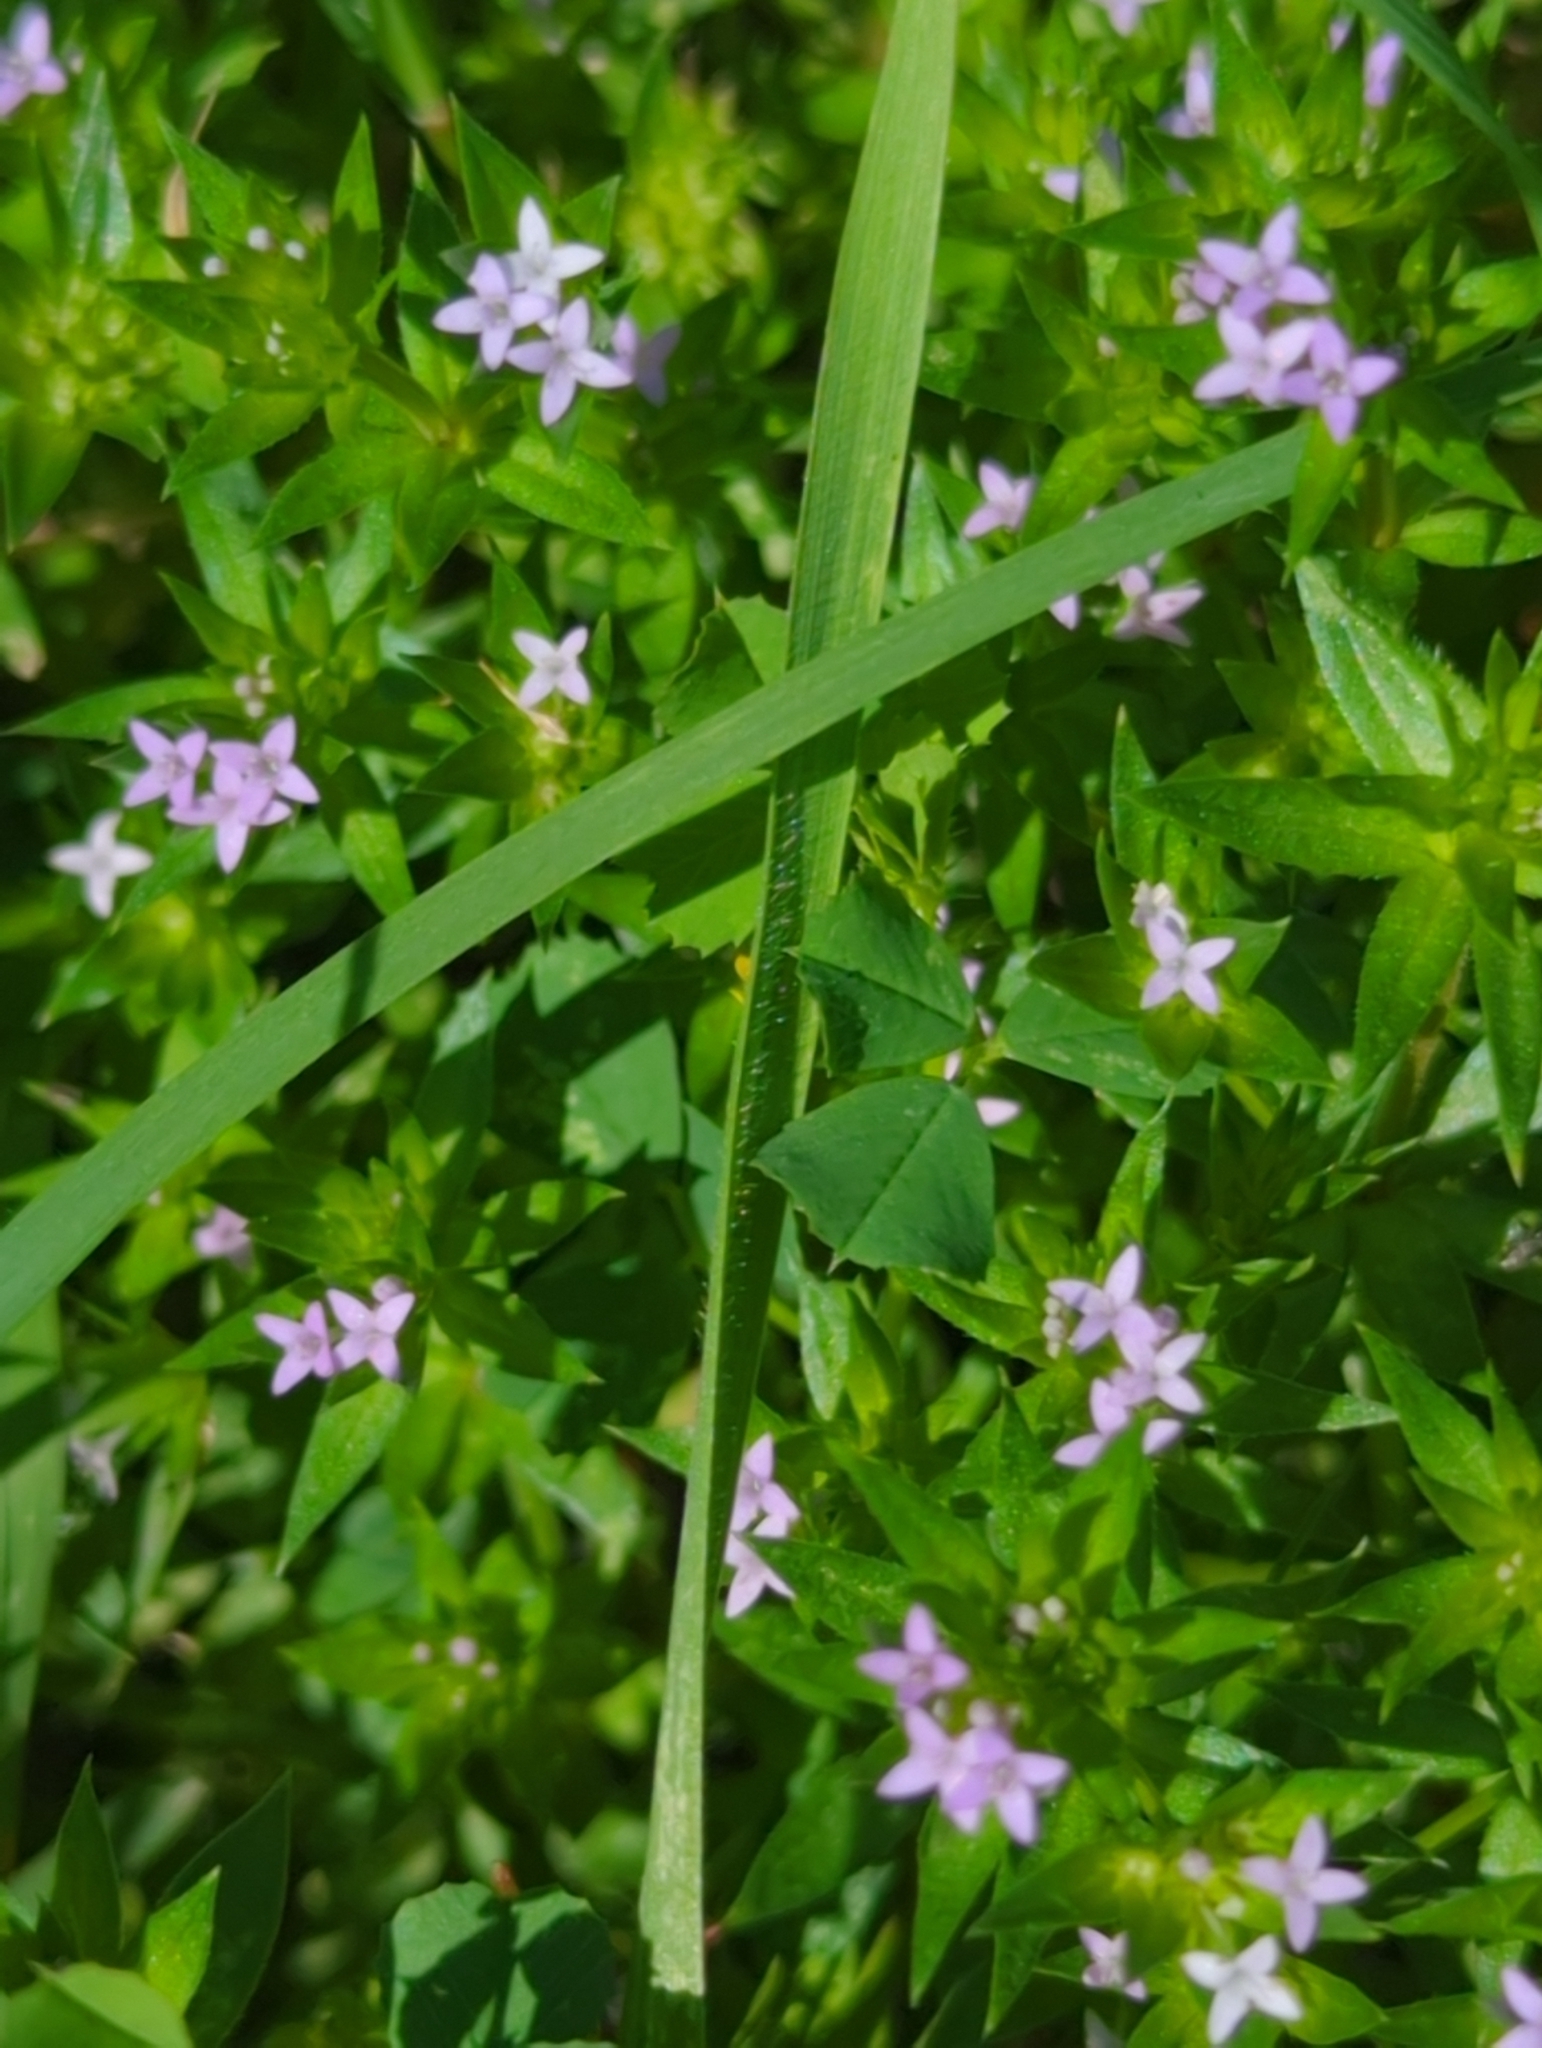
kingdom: Plantae
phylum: Tracheophyta
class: Magnoliopsida
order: Gentianales
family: Rubiaceae
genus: Sherardia
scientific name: Sherardia arvensis
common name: Field madder
